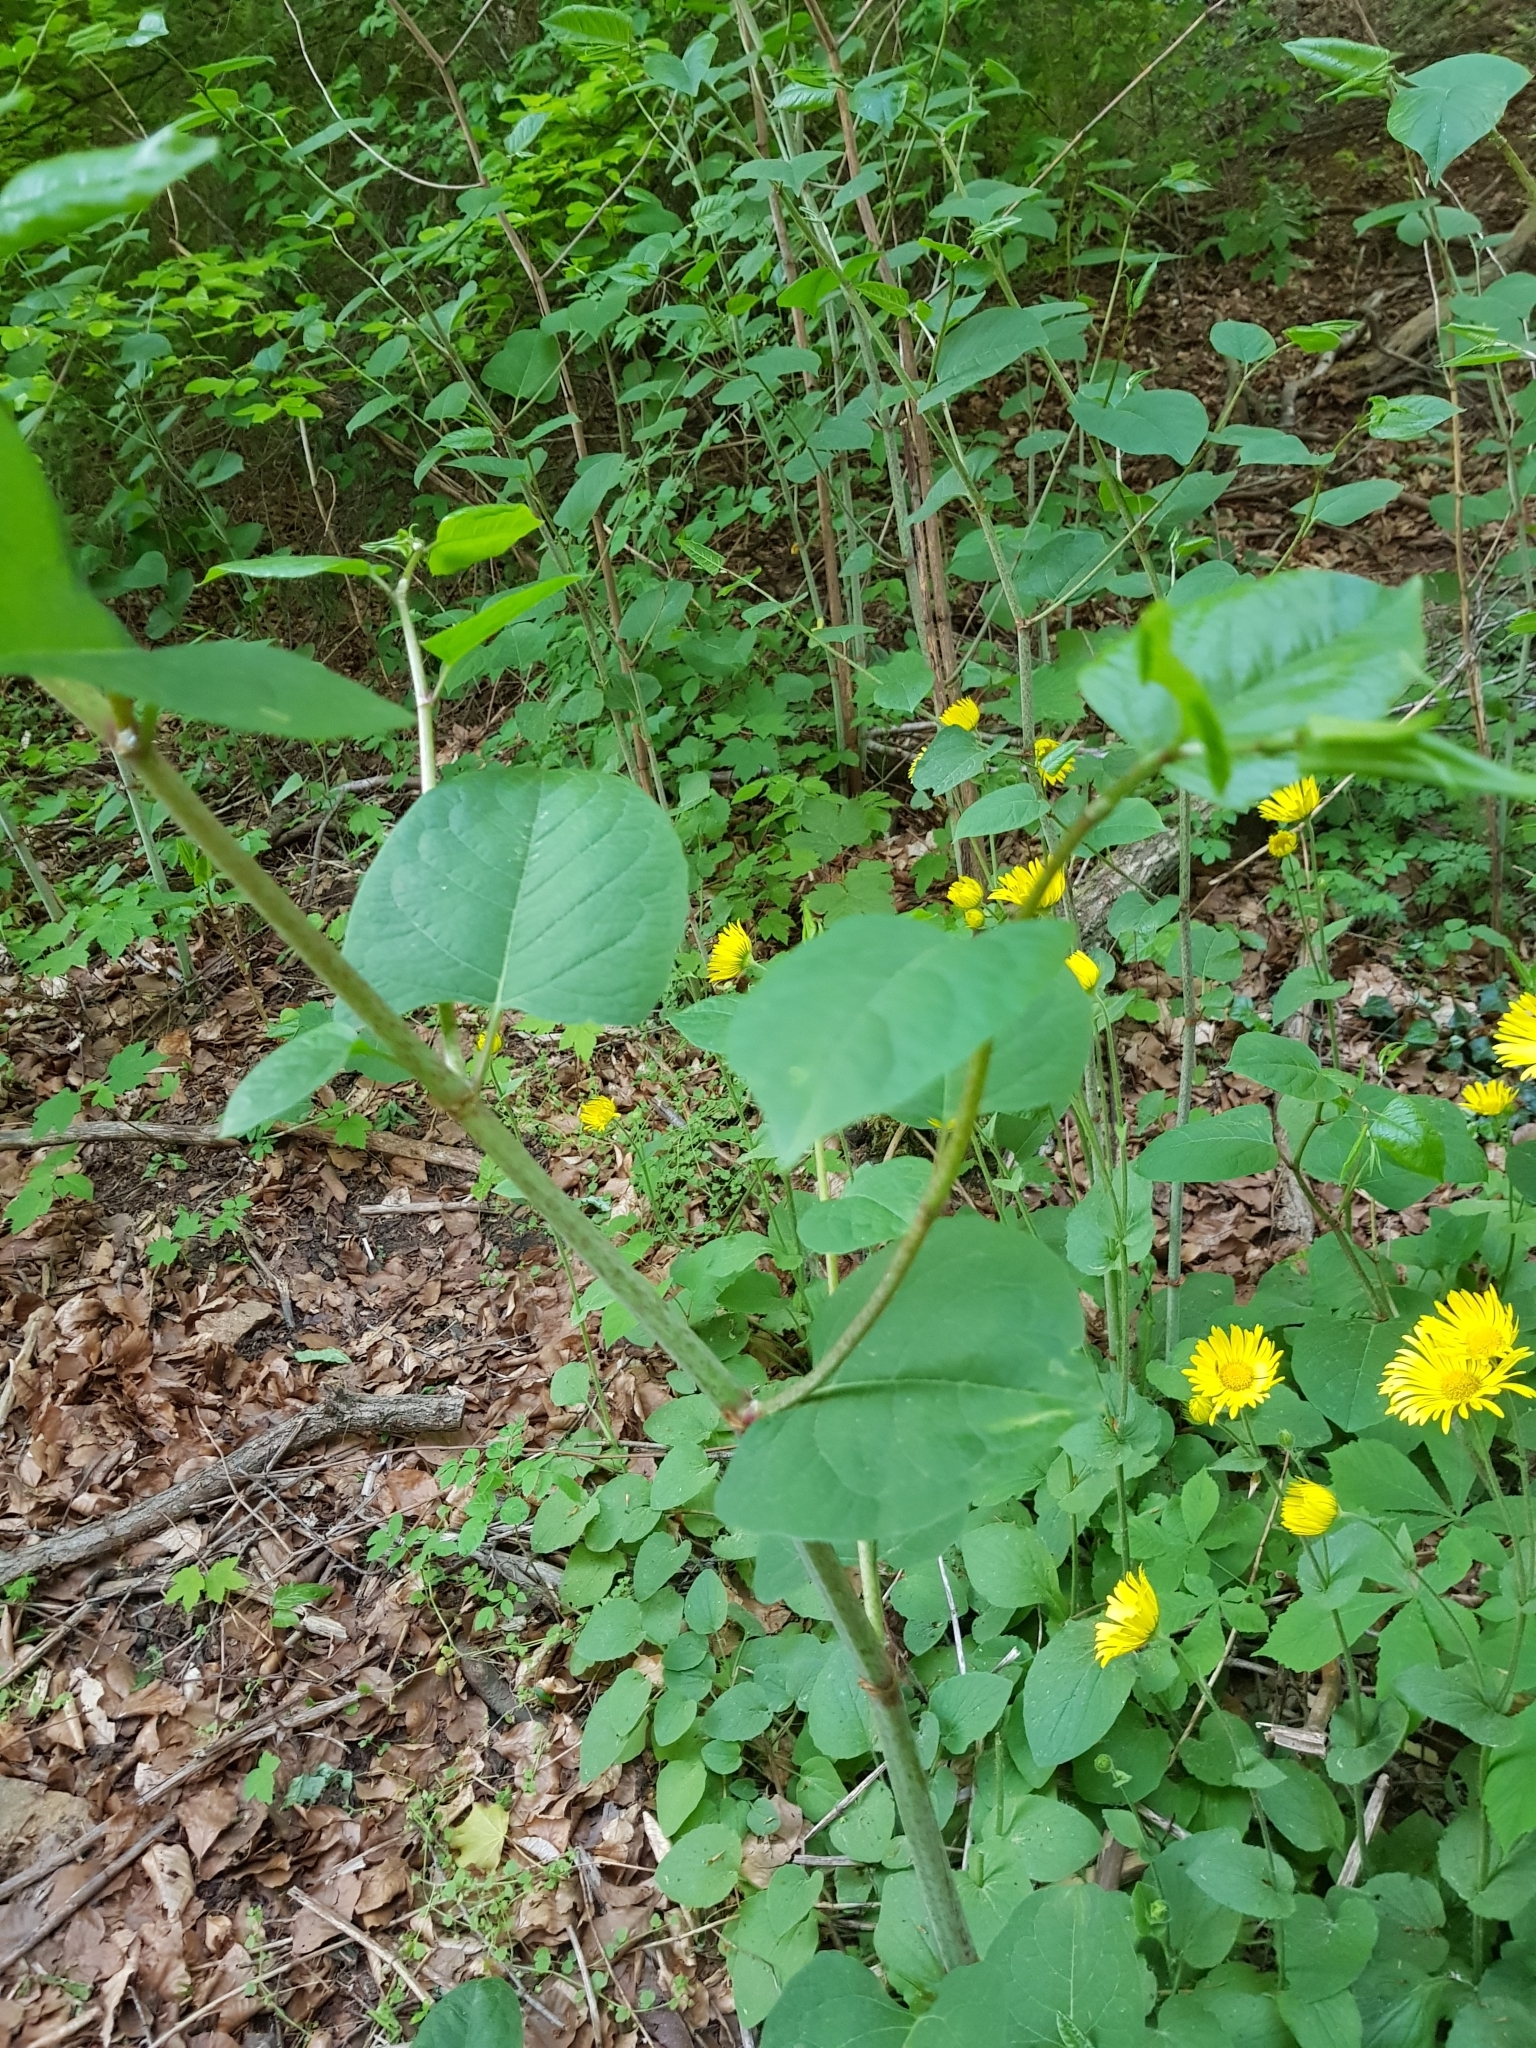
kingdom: Plantae
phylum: Tracheophyta
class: Magnoliopsida
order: Caryophyllales
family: Polygonaceae
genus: Reynoutria
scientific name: Reynoutria japonica
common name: Japanese knotweed
